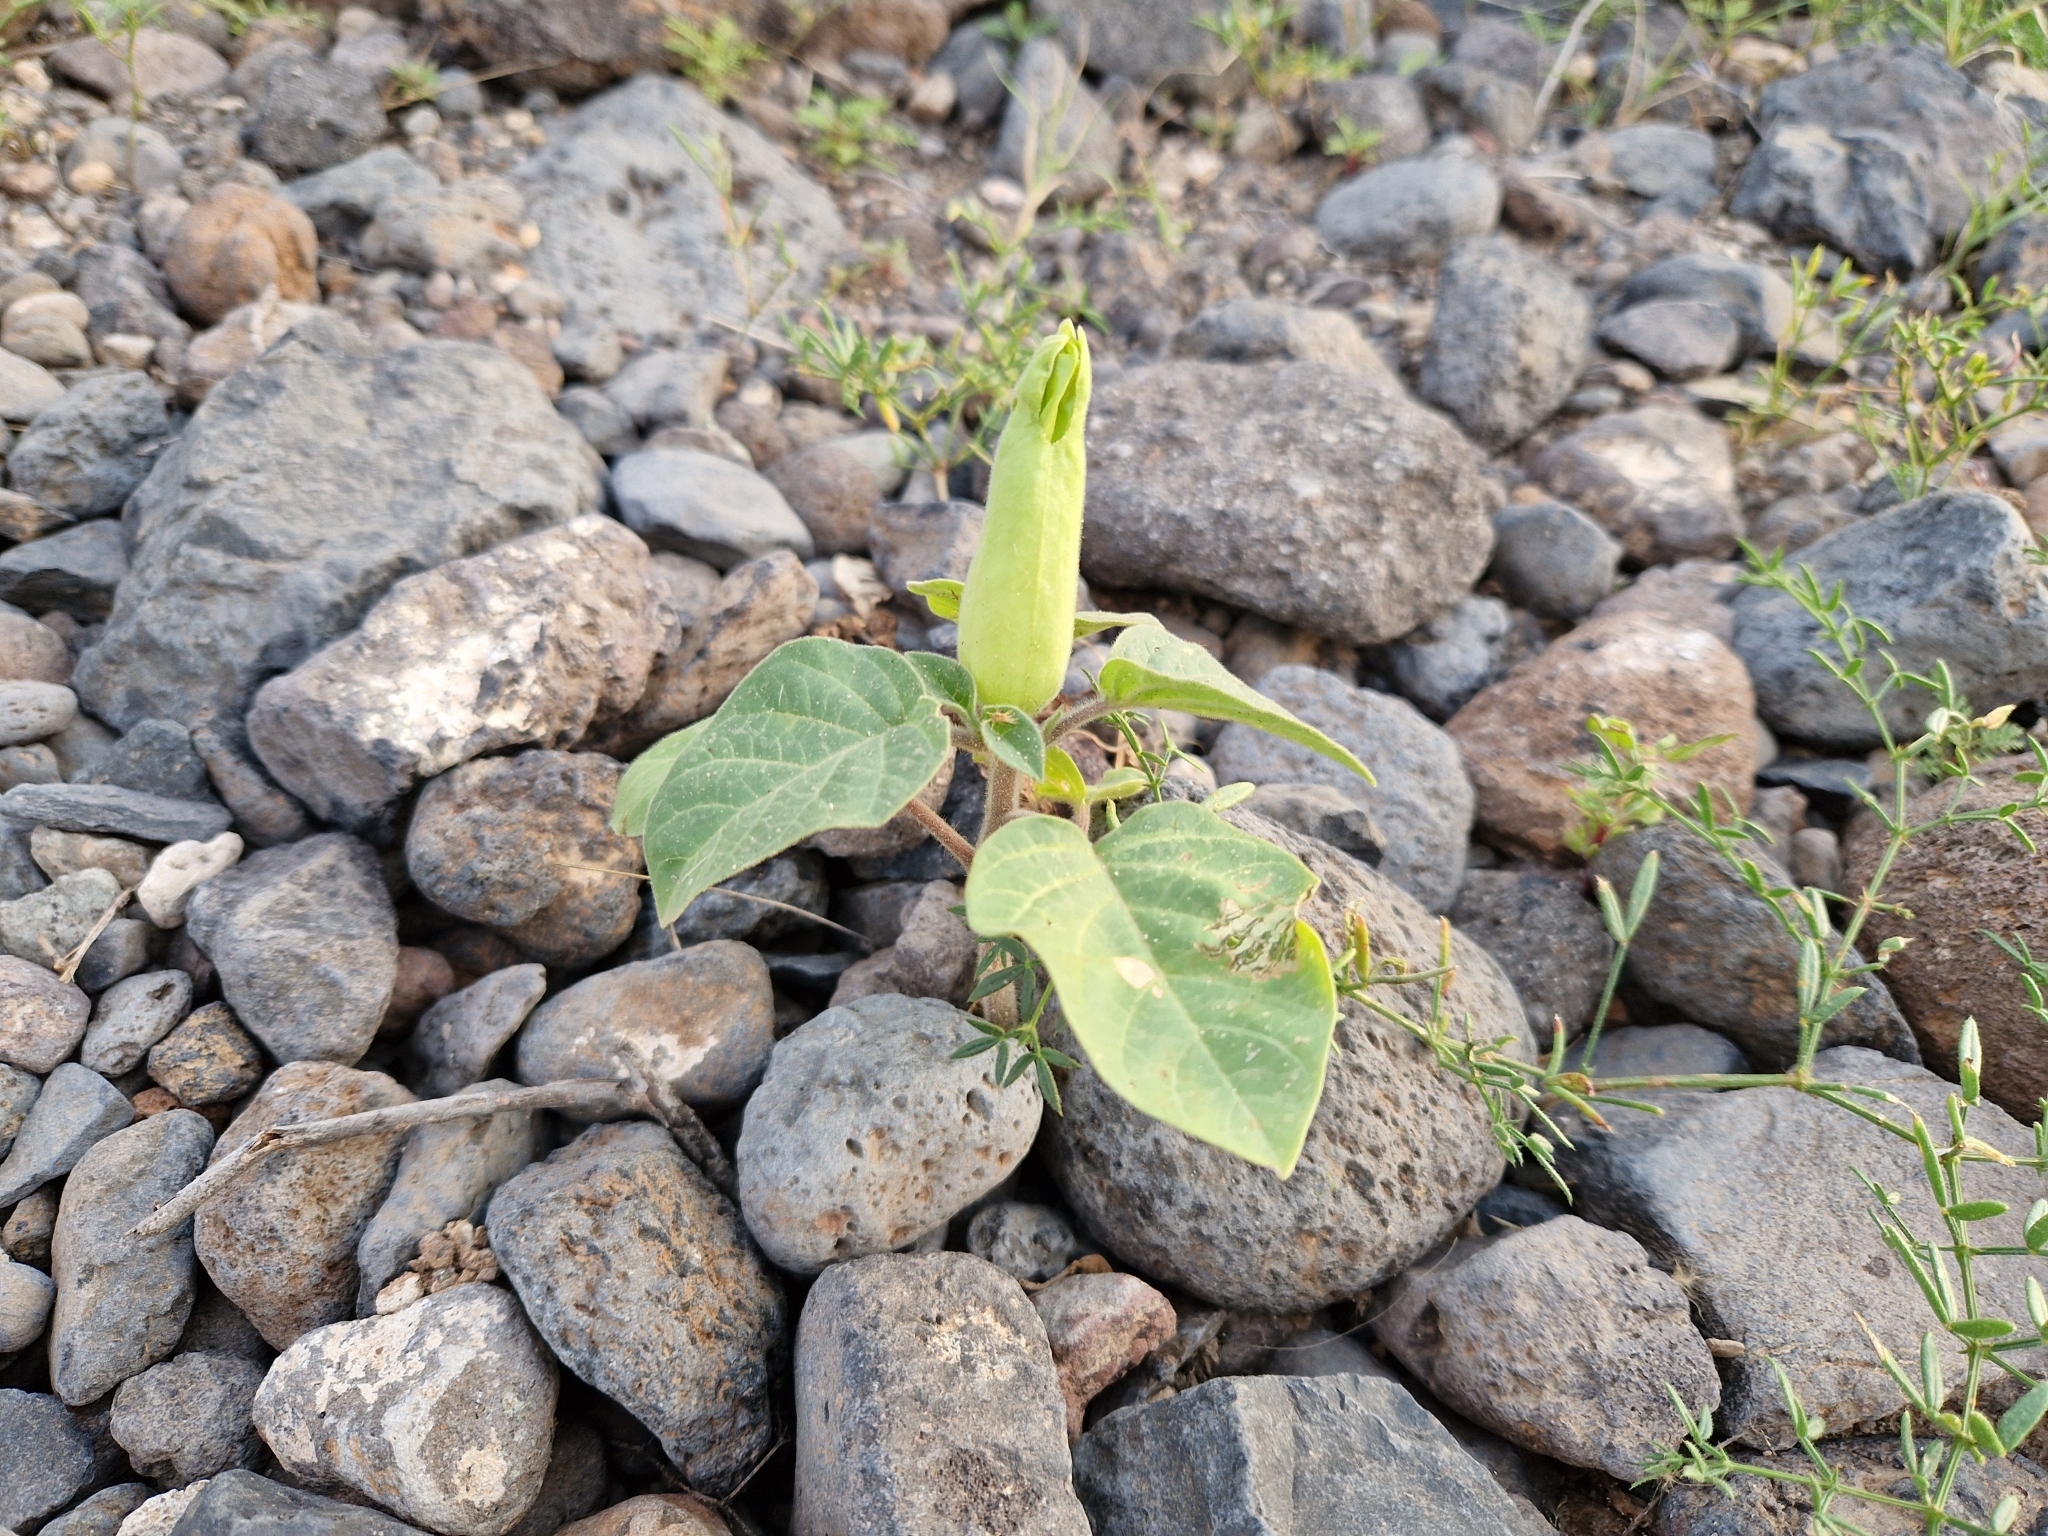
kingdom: Plantae
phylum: Tracheophyta
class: Magnoliopsida
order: Solanales
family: Solanaceae
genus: Datura
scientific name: Datura innoxia
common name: Downy thorn-apple
